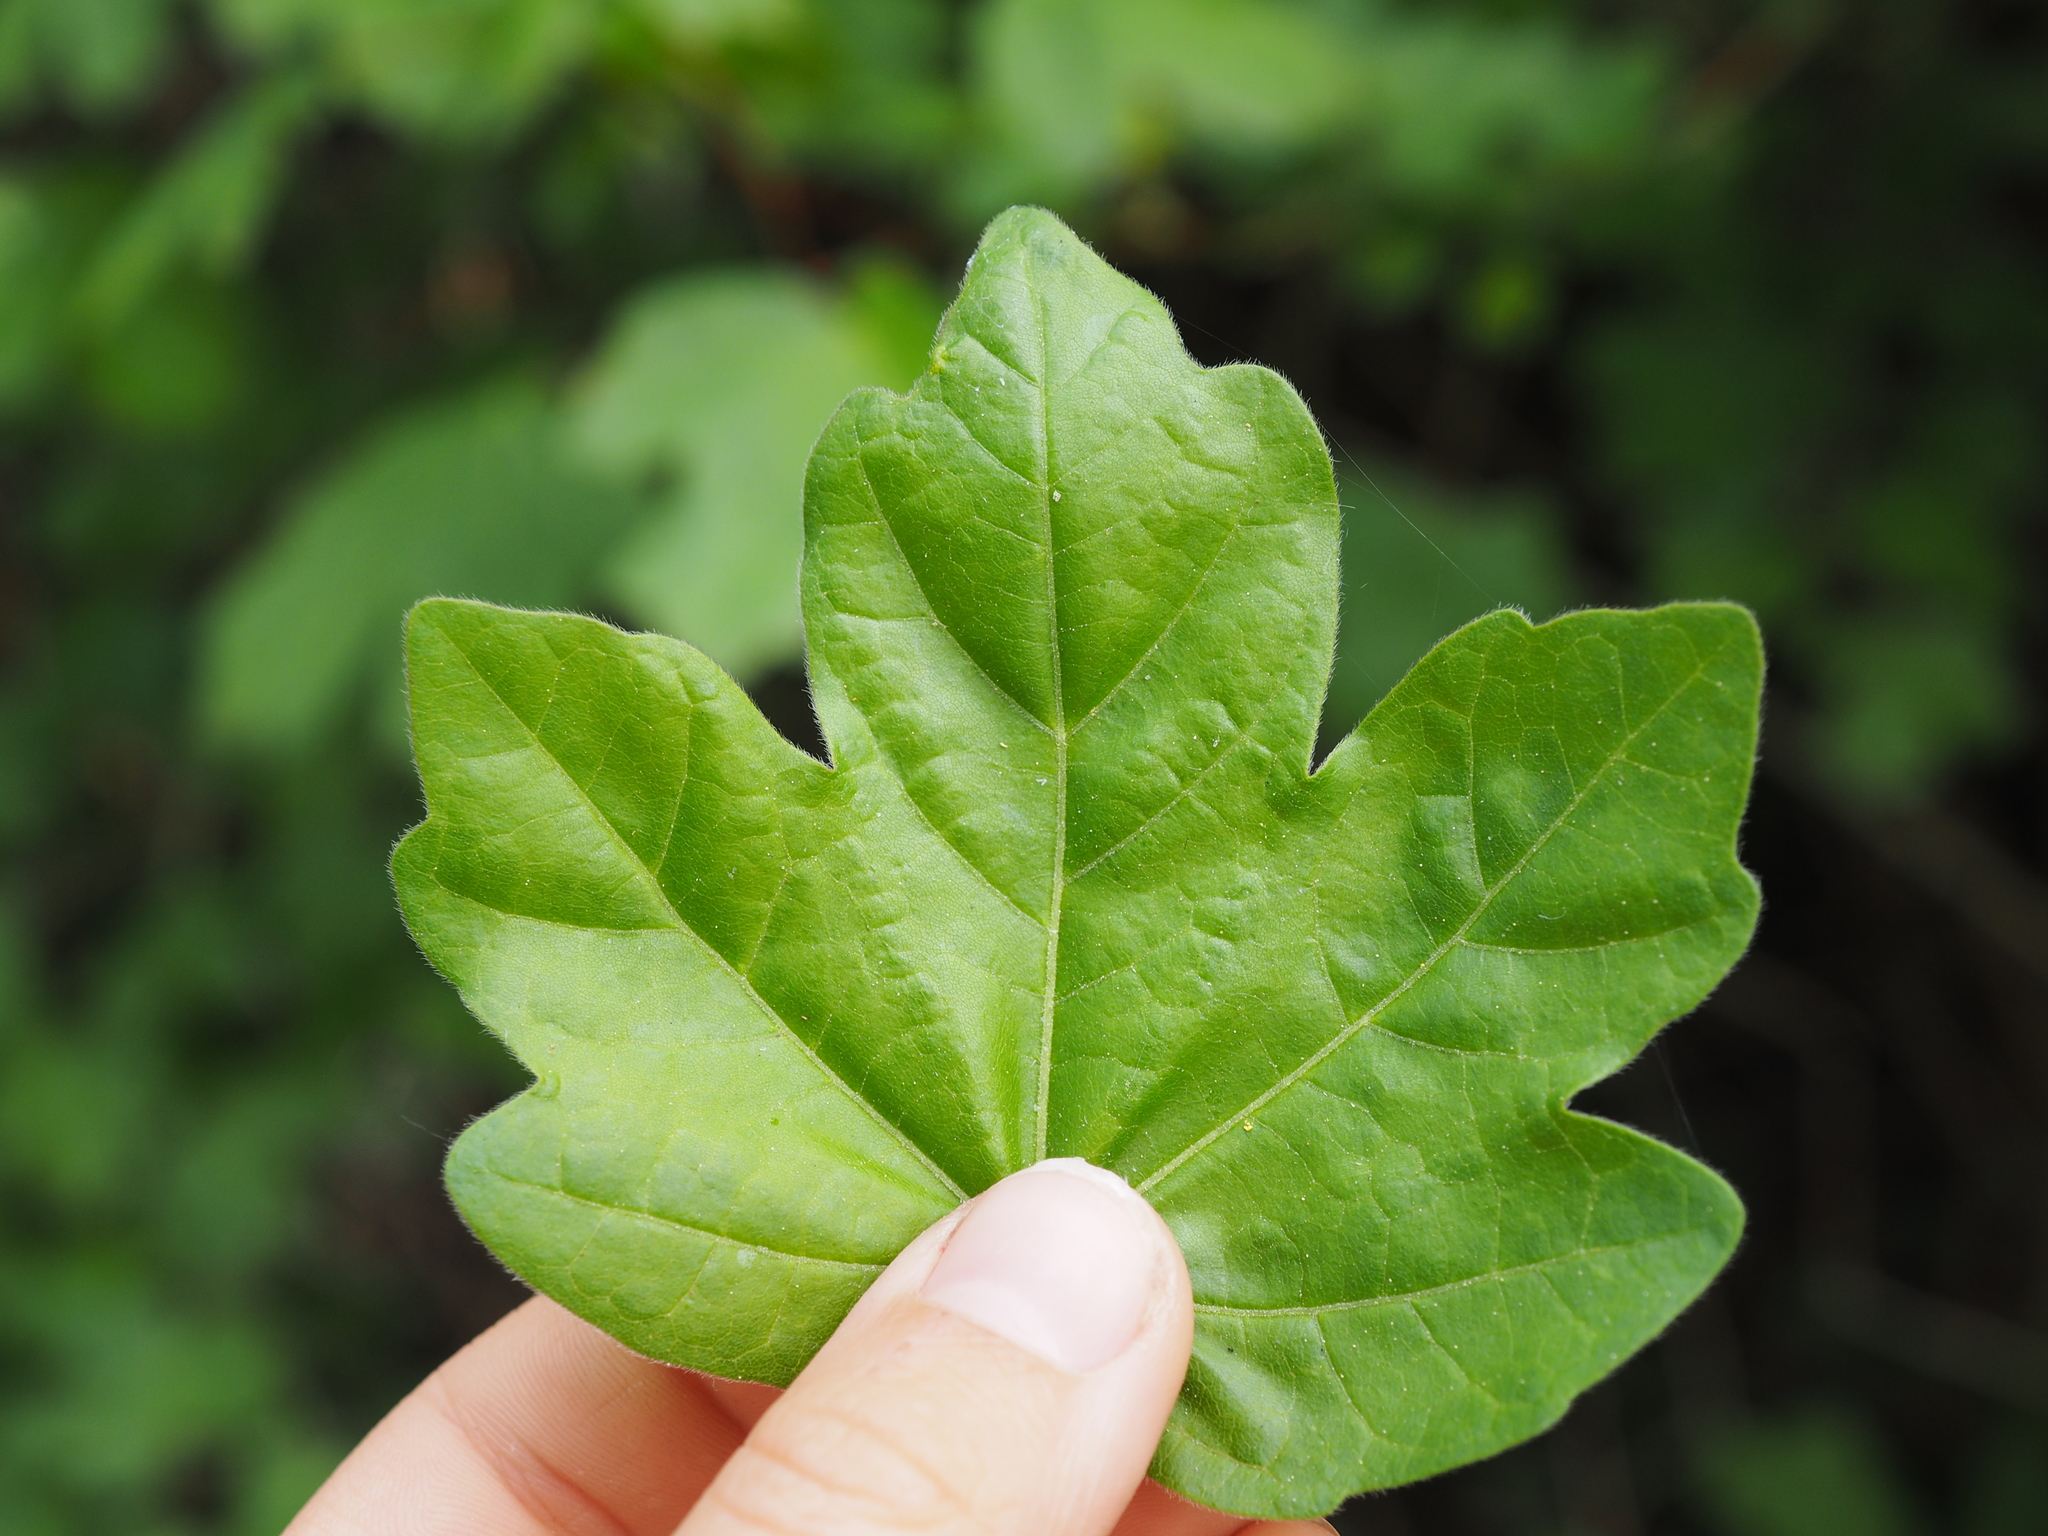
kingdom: Plantae
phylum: Tracheophyta
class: Magnoliopsida
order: Sapindales
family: Sapindaceae
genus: Acer
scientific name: Acer campestre
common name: Field maple
